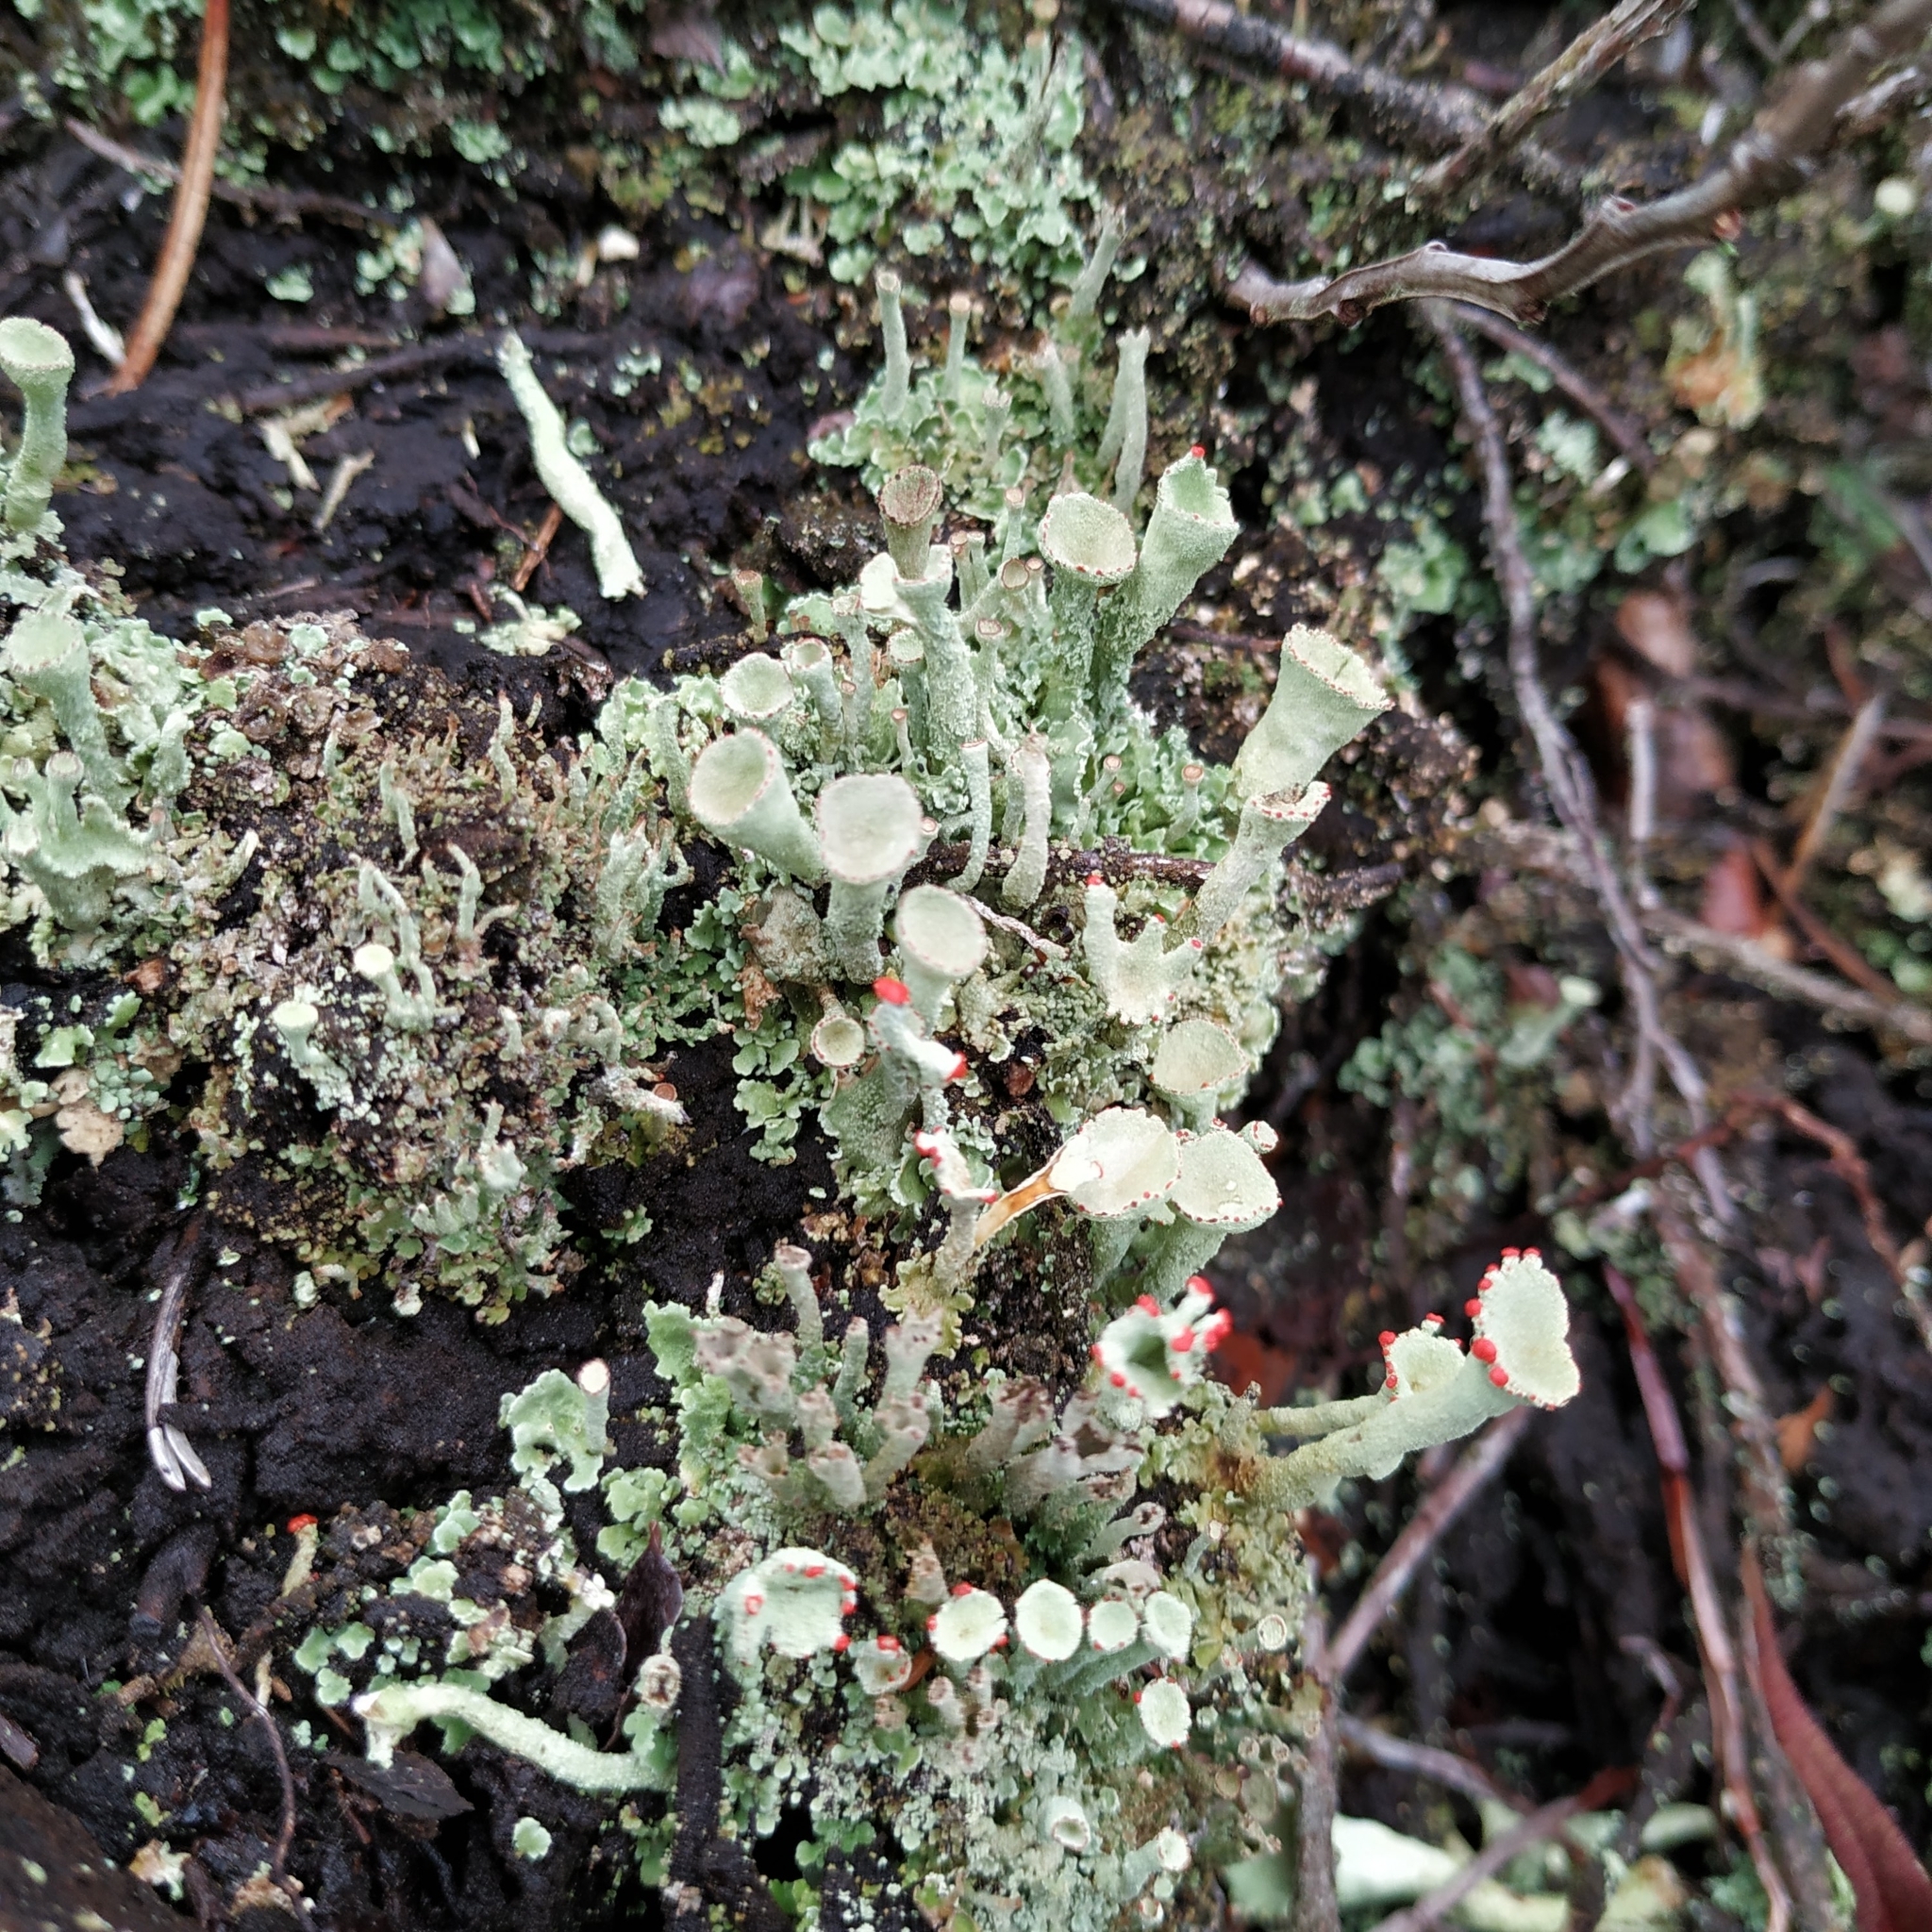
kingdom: Fungi
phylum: Ascomycota
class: Lecanoromycetes
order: Lecanorales
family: Cladoniaceae
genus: Cladonia
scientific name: Cladonia deformis
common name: Lesser sulphur-cup lichen
